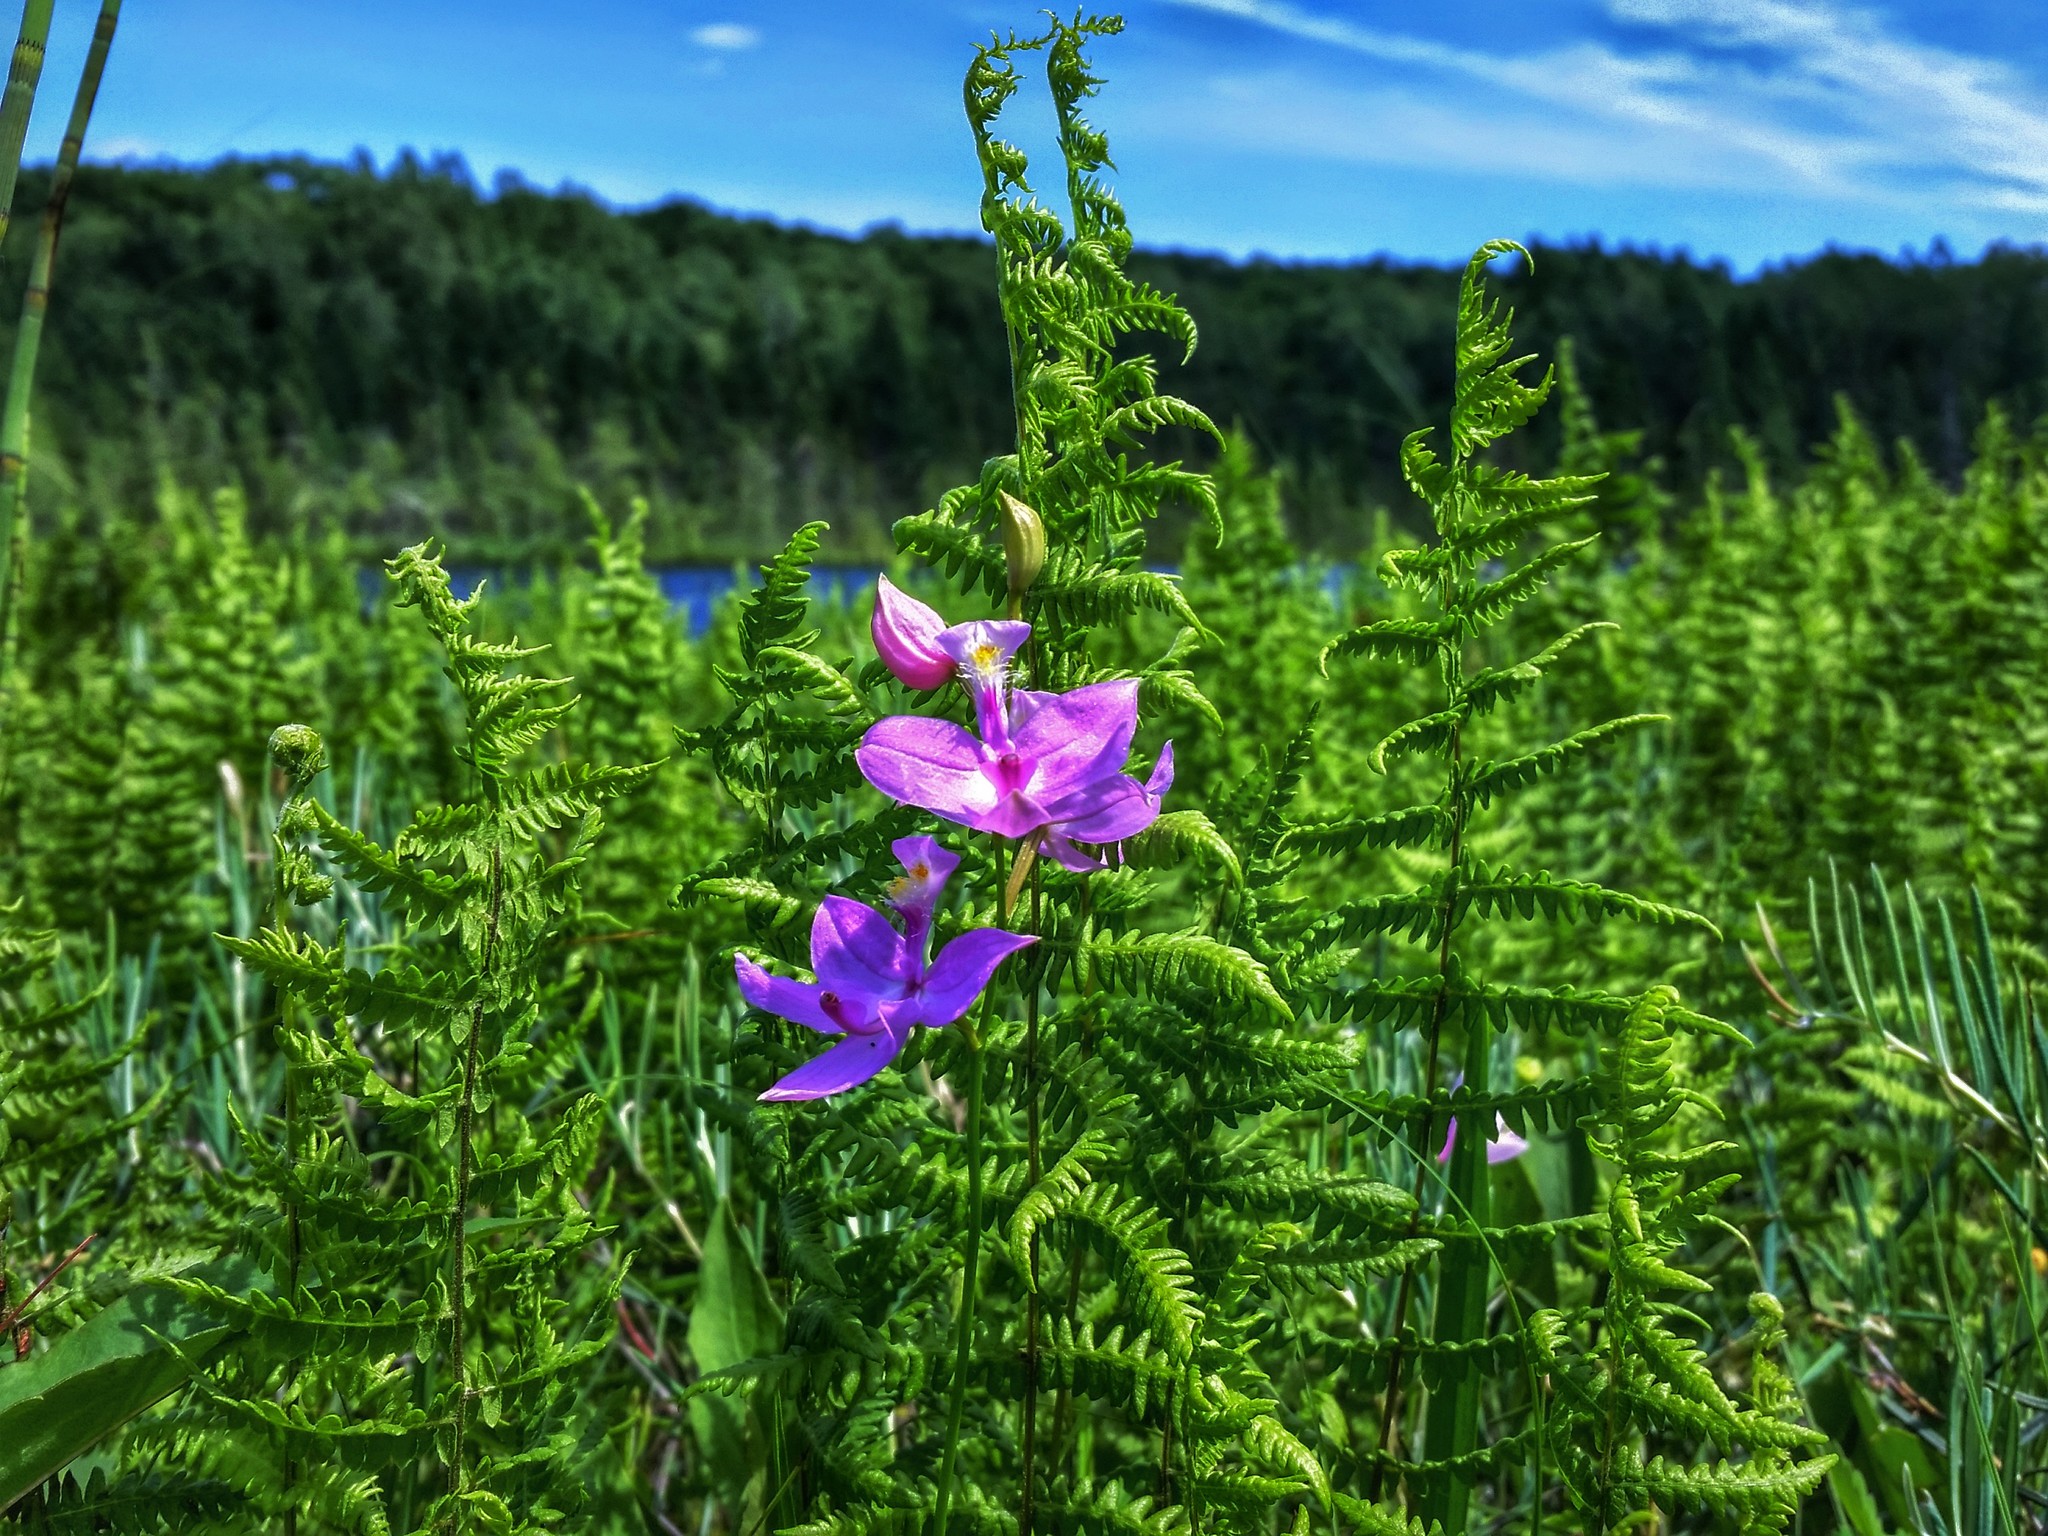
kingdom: Plantae
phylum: Tracheophyta
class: Liliopsida
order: Asparagales
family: Orchidaceae
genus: Calopogon
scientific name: Calopogon tuberosus
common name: Grass-pink
